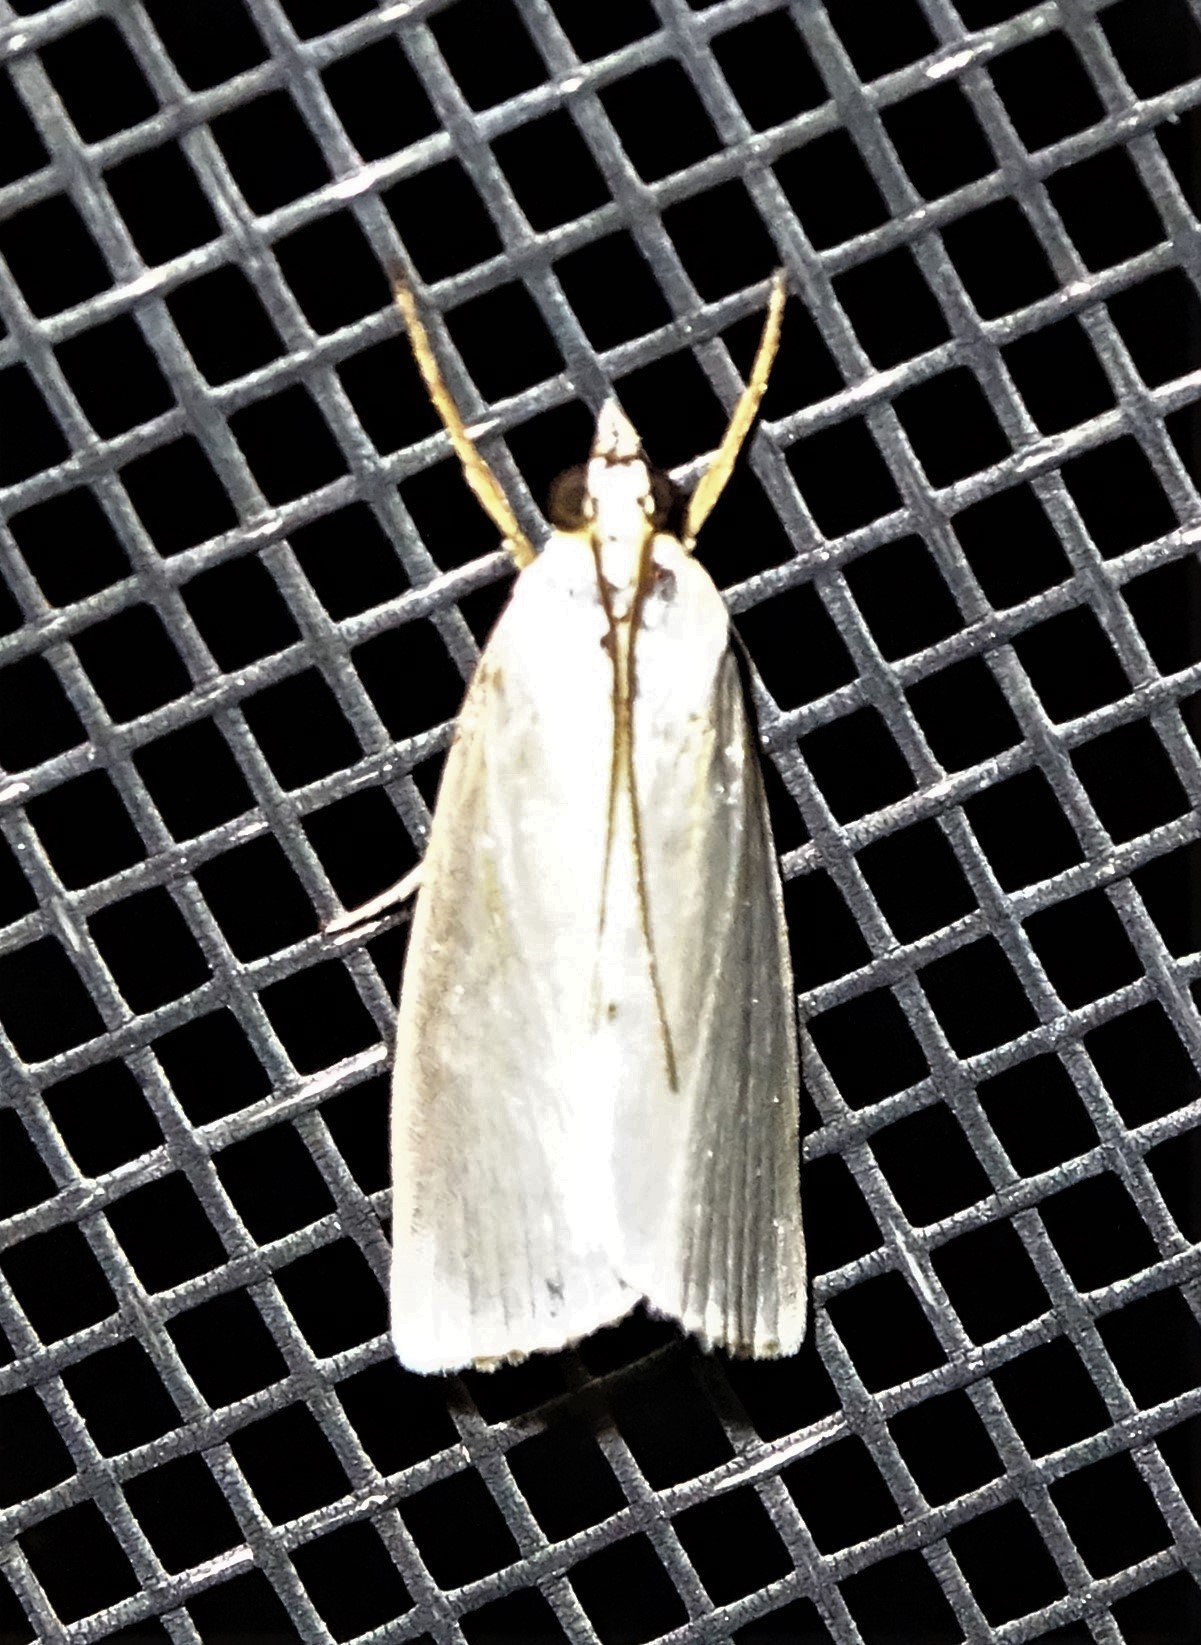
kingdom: Animalia
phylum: Arthropoda
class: Insecta
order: Lepidoptera
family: Crambidae
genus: Argyria
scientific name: Argyria nivalis
